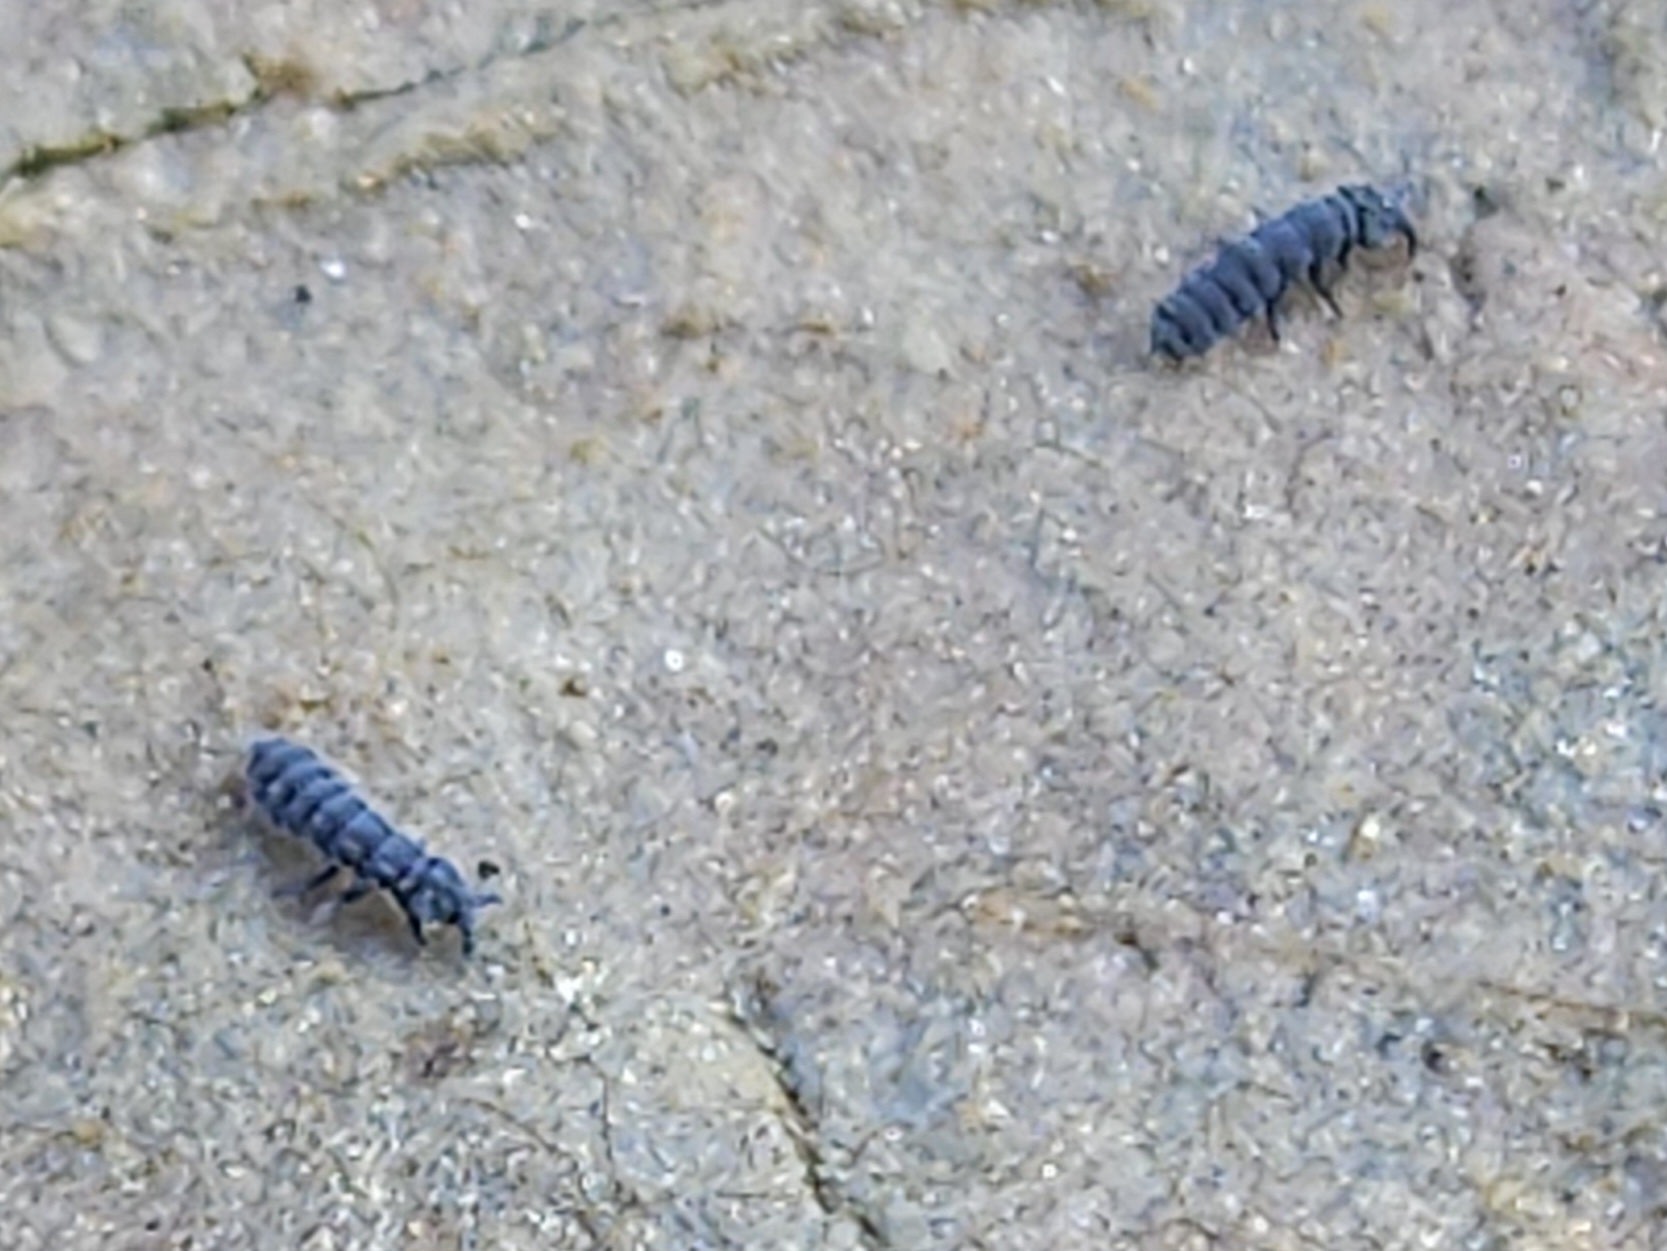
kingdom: Animalia
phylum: Arthropoda
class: Collembola
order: Poduromorpha
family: Neanuridae
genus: Anurida
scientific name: Anurida maritima
